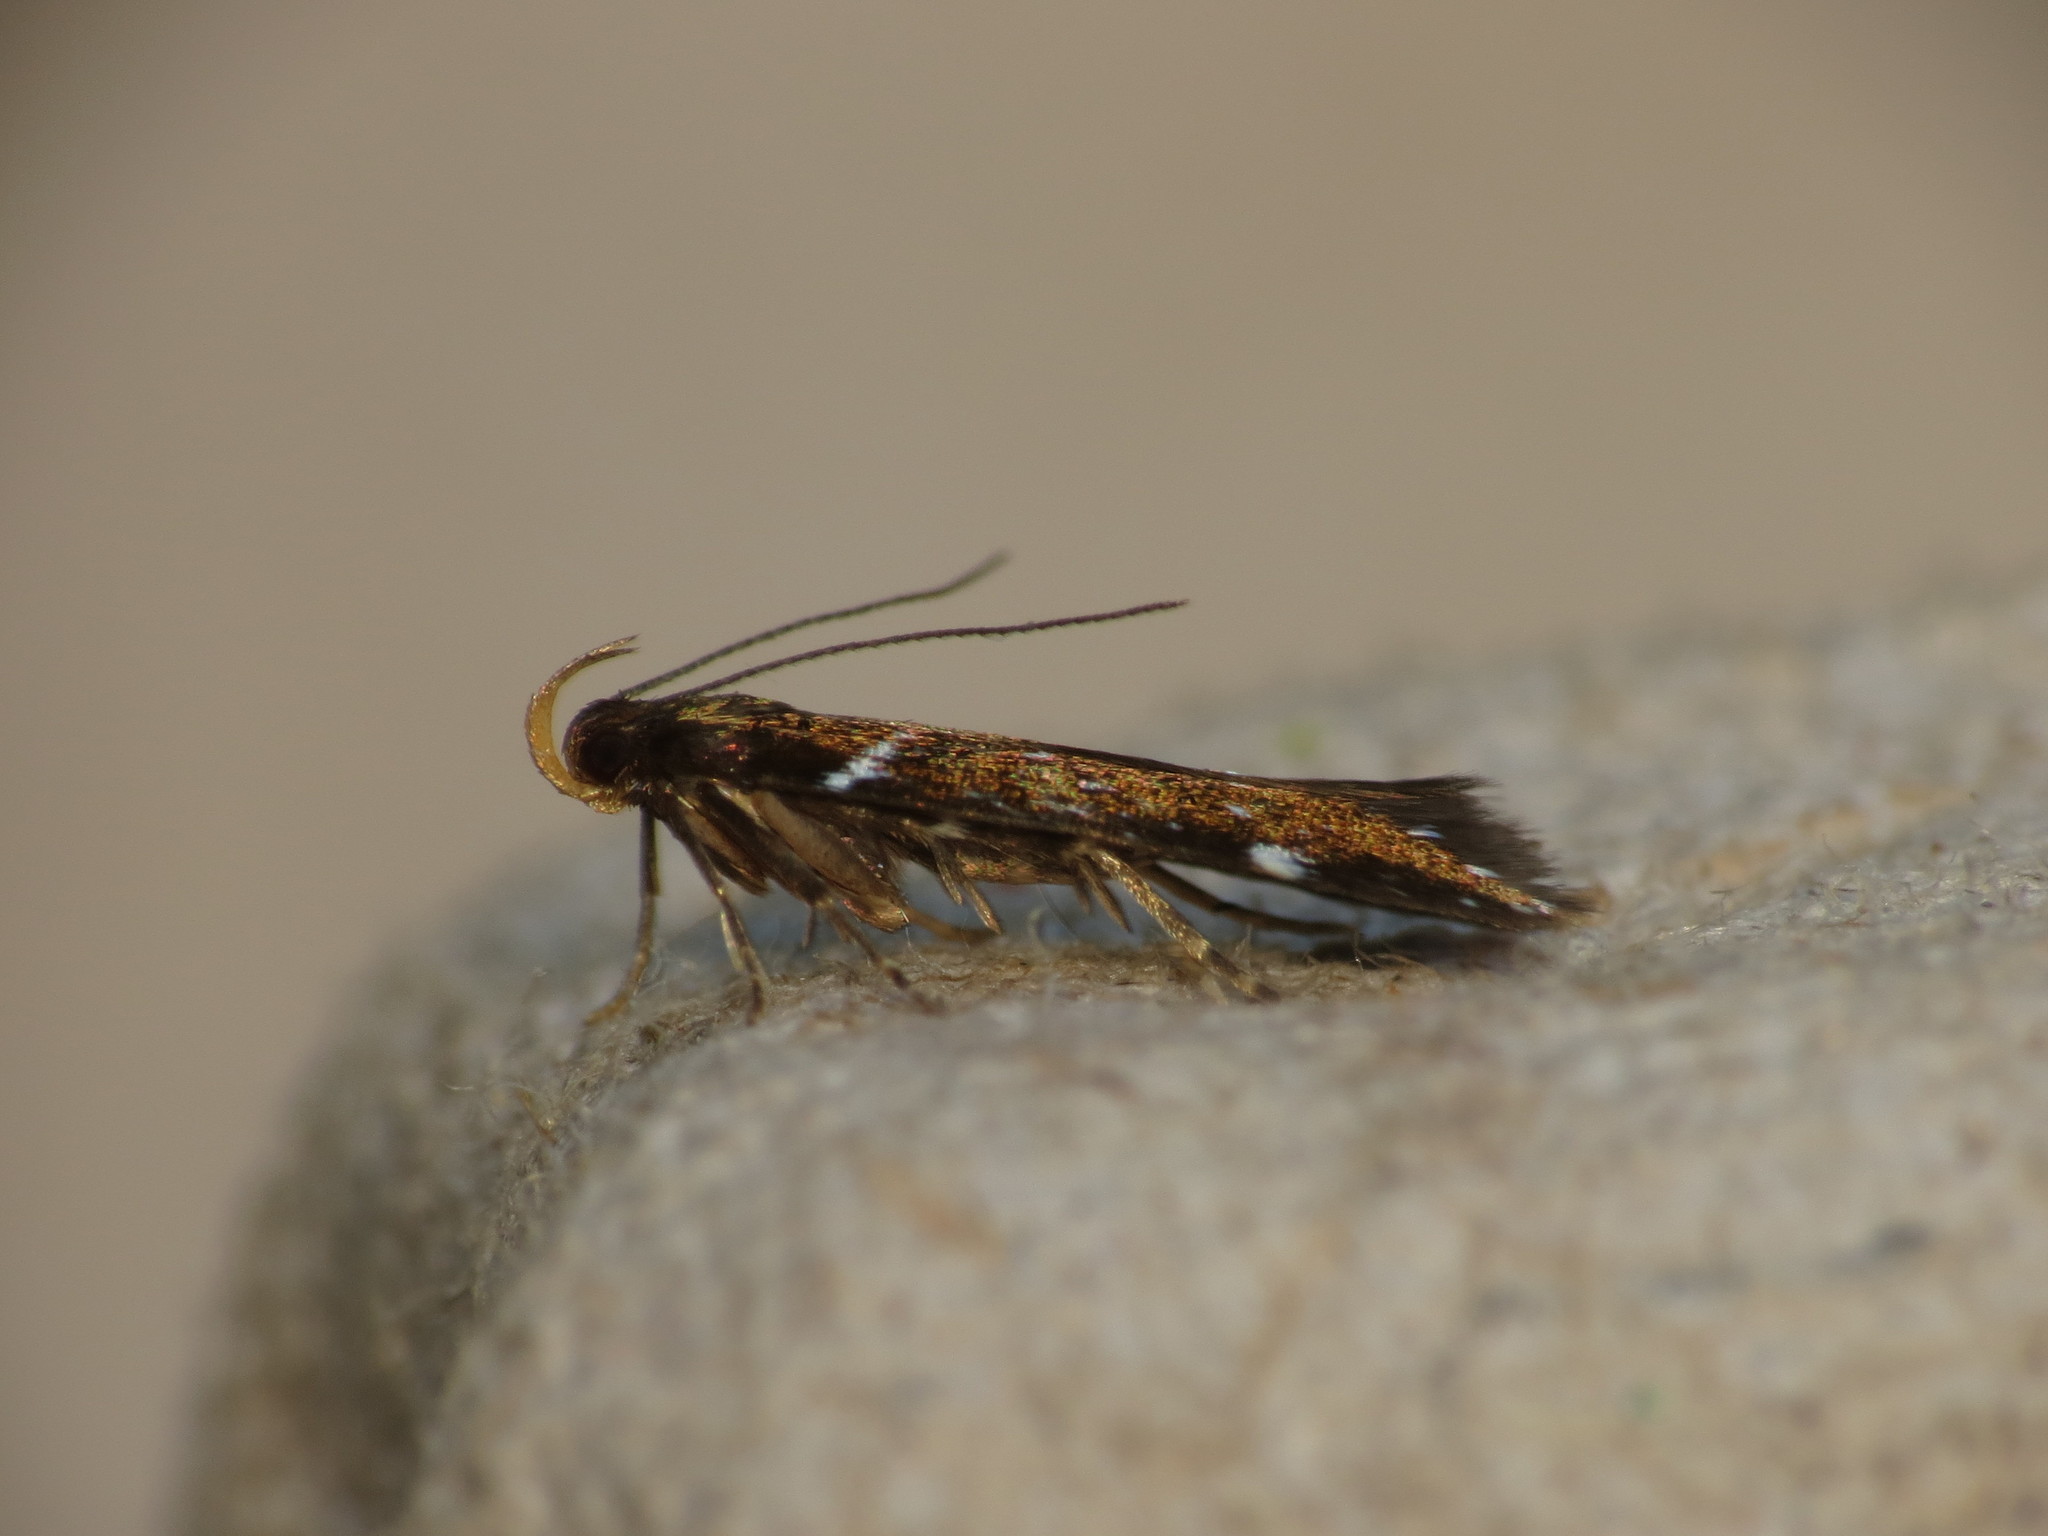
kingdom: Animalia
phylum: Arthropoda
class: Insecta
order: Lepidoptera
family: Gelechiidae
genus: Argolamprotes
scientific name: Argolamprotes micella
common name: Bright neb
